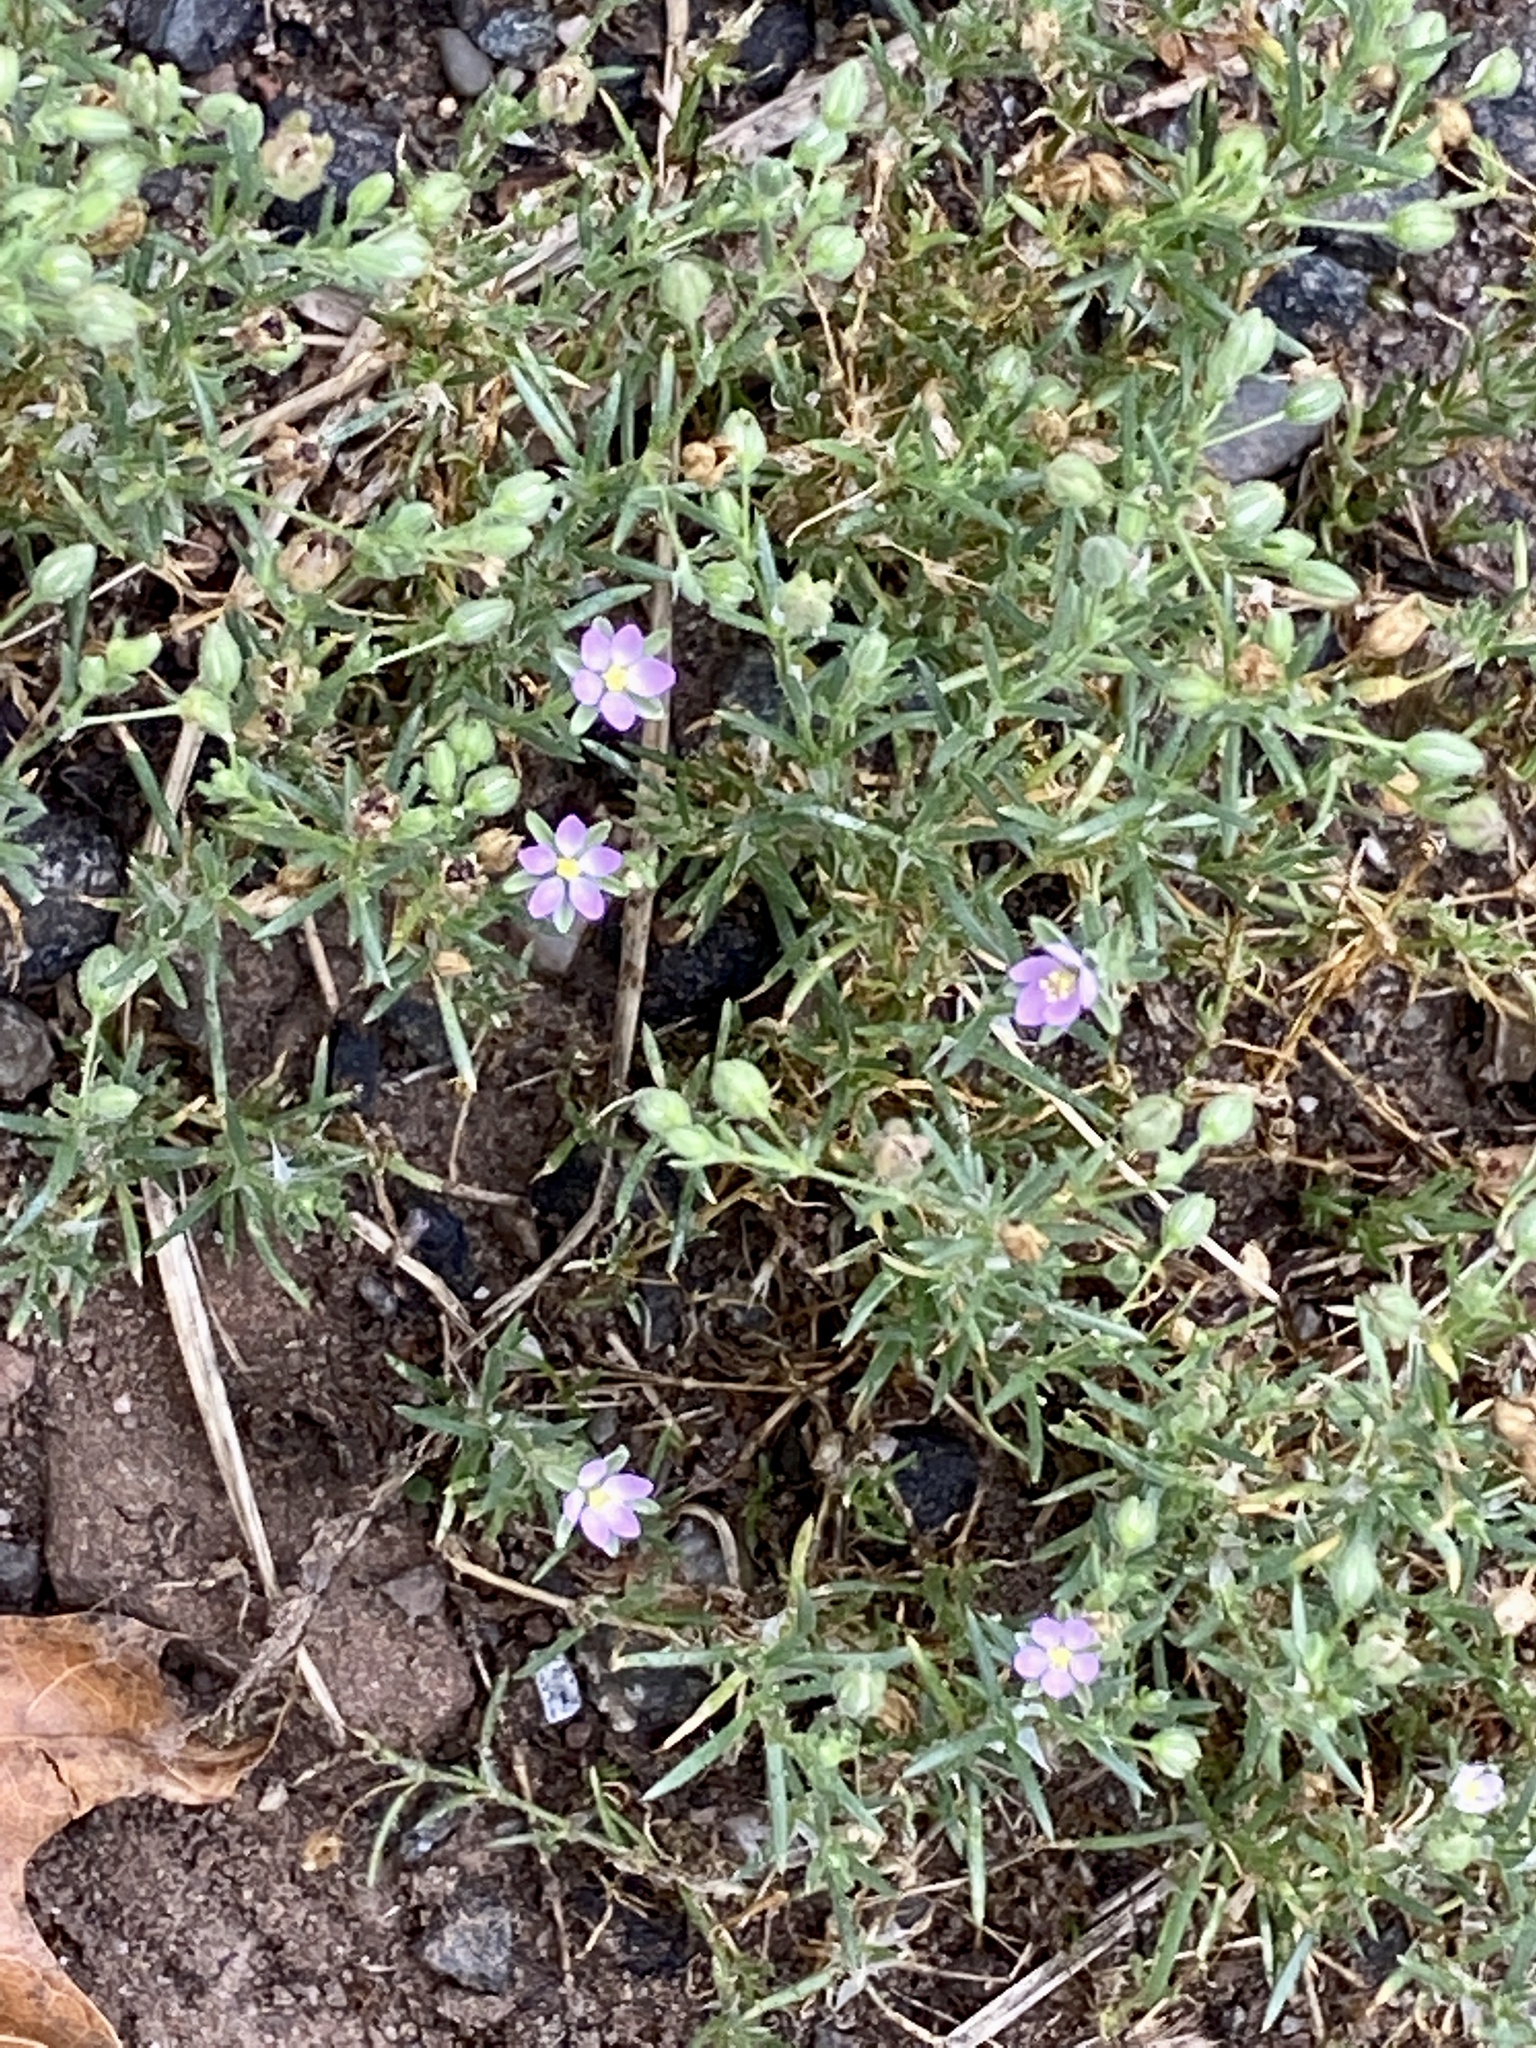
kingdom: Plantae
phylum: Tracheophyta
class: Magnoliopsida
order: Caryophyllales
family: Caryophyllaceae
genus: Spergularia
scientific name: Spergularia rubra
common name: Red sand-spurrey
